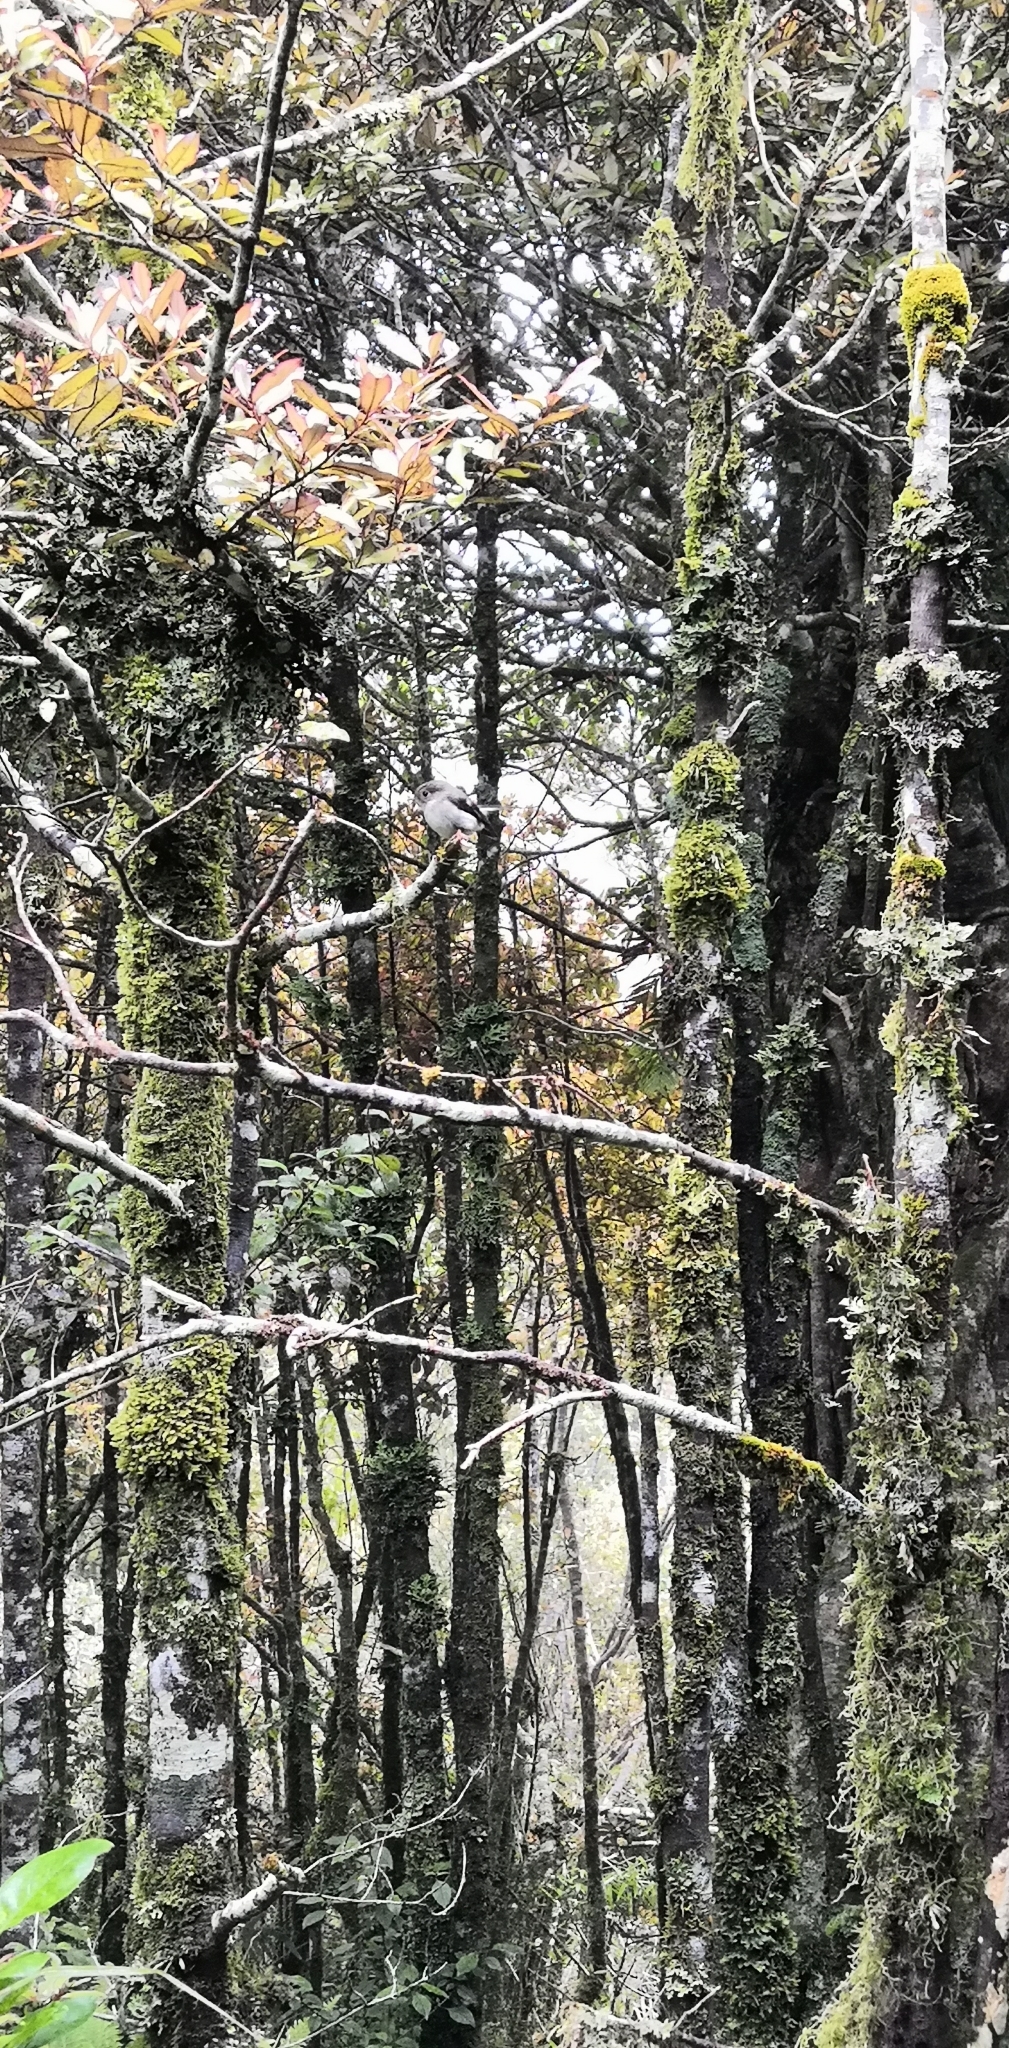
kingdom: Animalia
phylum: Chordata
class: Aves
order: Passeriformes
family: Petroicidae
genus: Petroica
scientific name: Petroica macrocephala
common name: Tomtit
